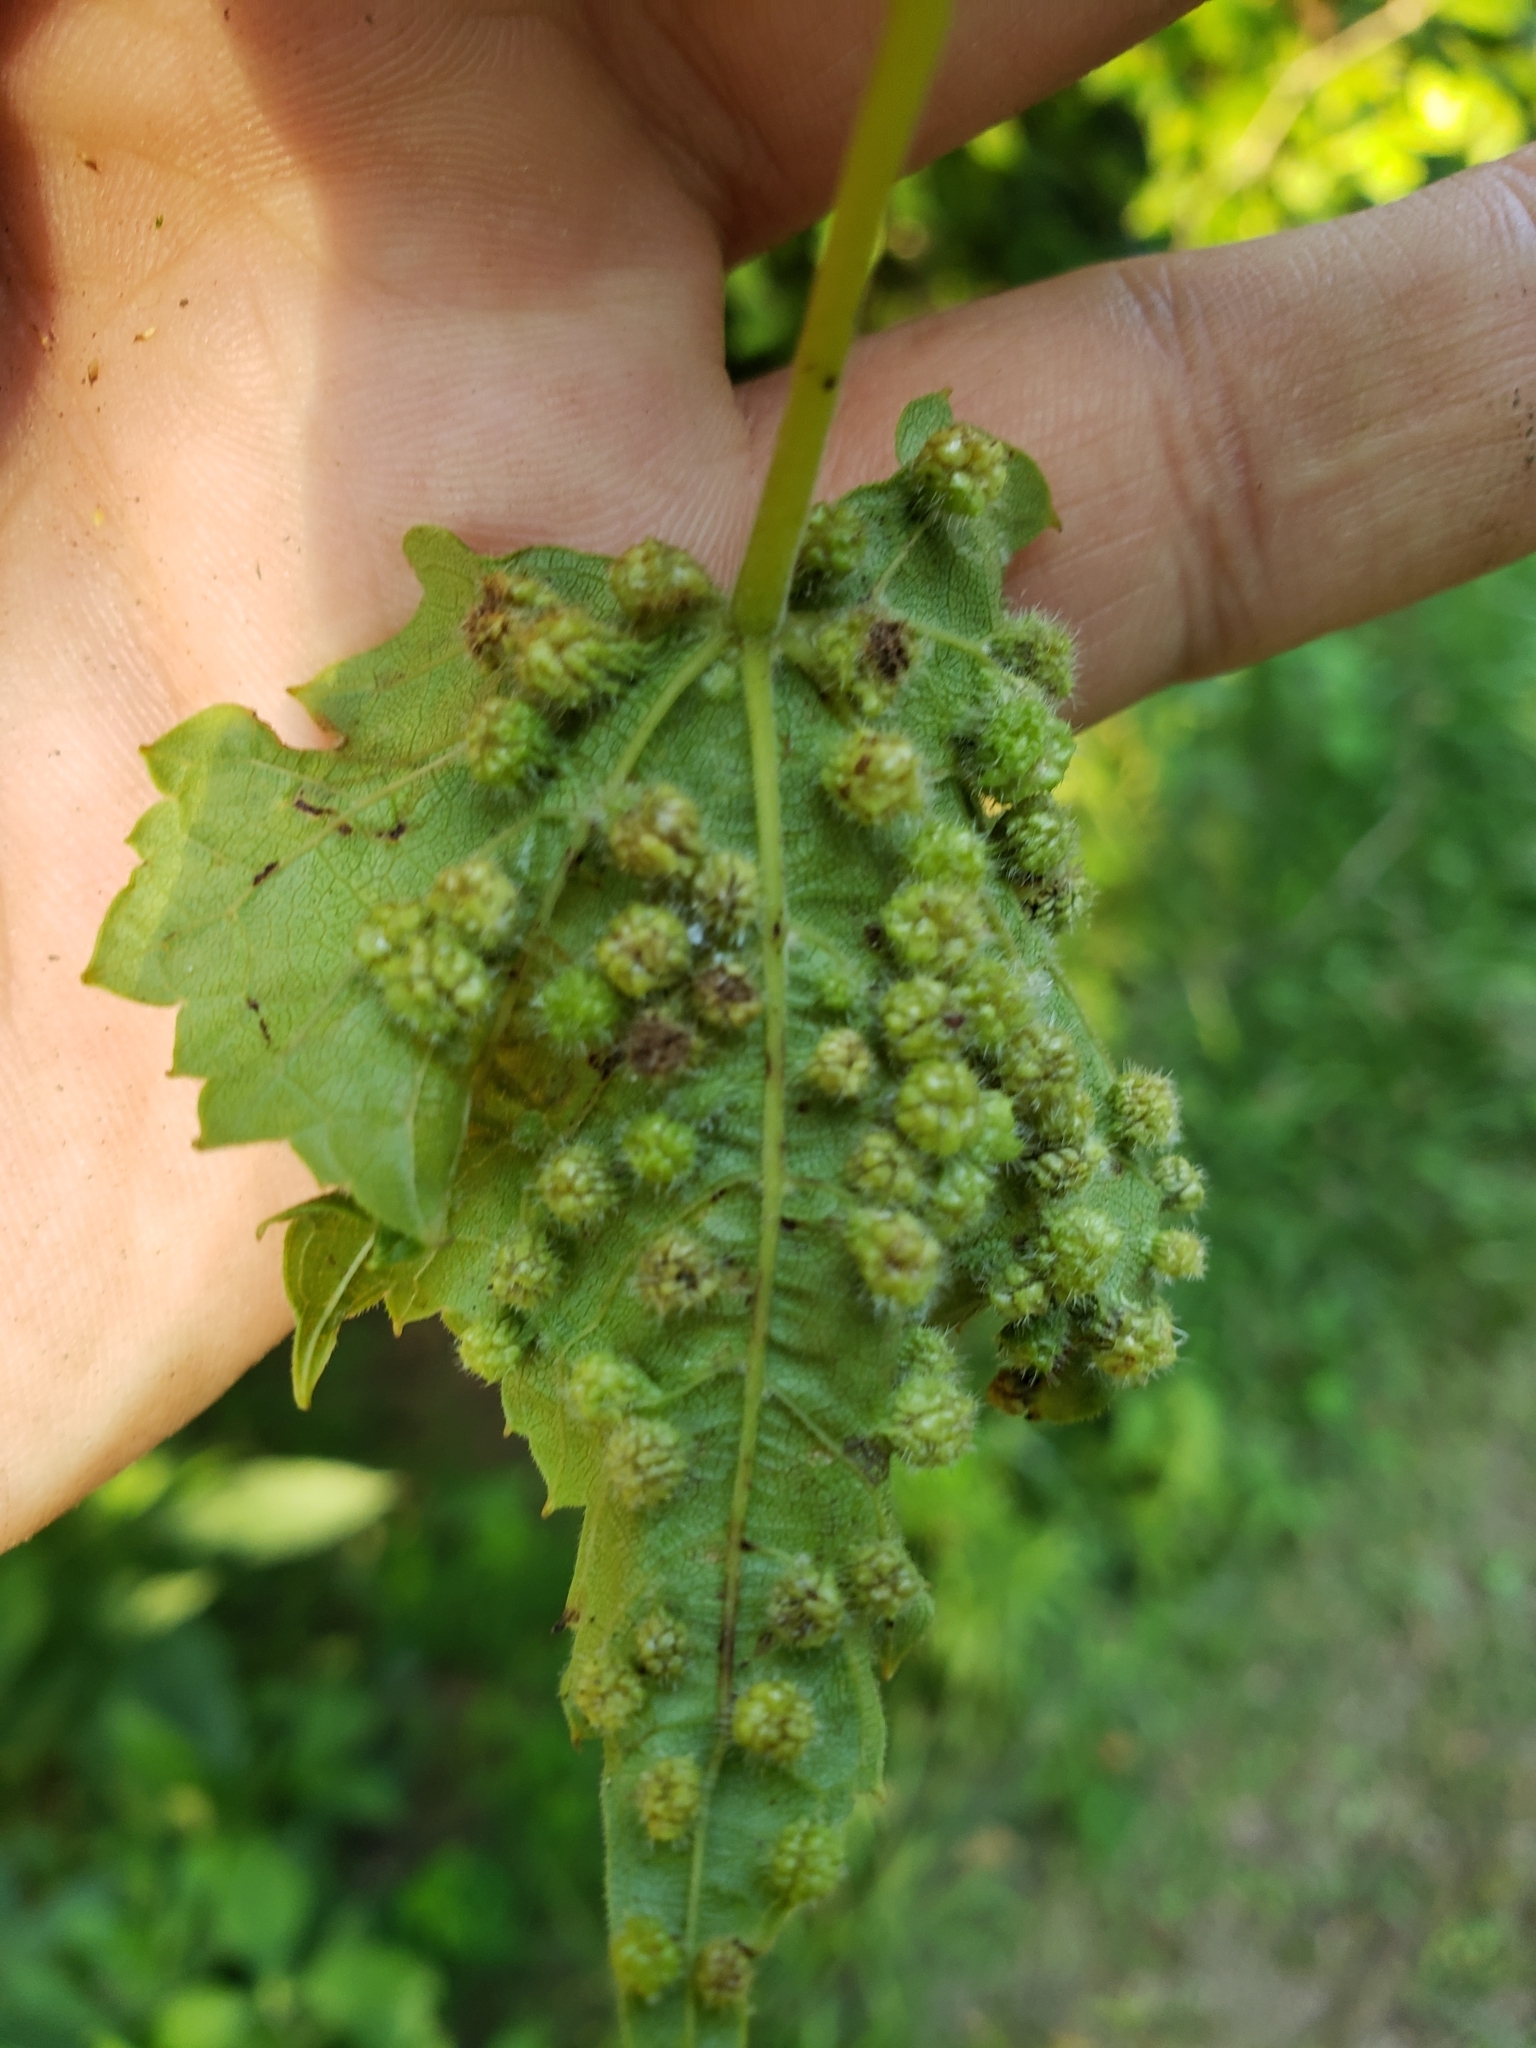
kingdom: Animalia
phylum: Arthropoda
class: Insecta
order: Hemiptera
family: Phylloxeridae
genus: Daktulosphaira
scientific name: Daktulosphaira vitifoliae
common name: Grape phylloxera
